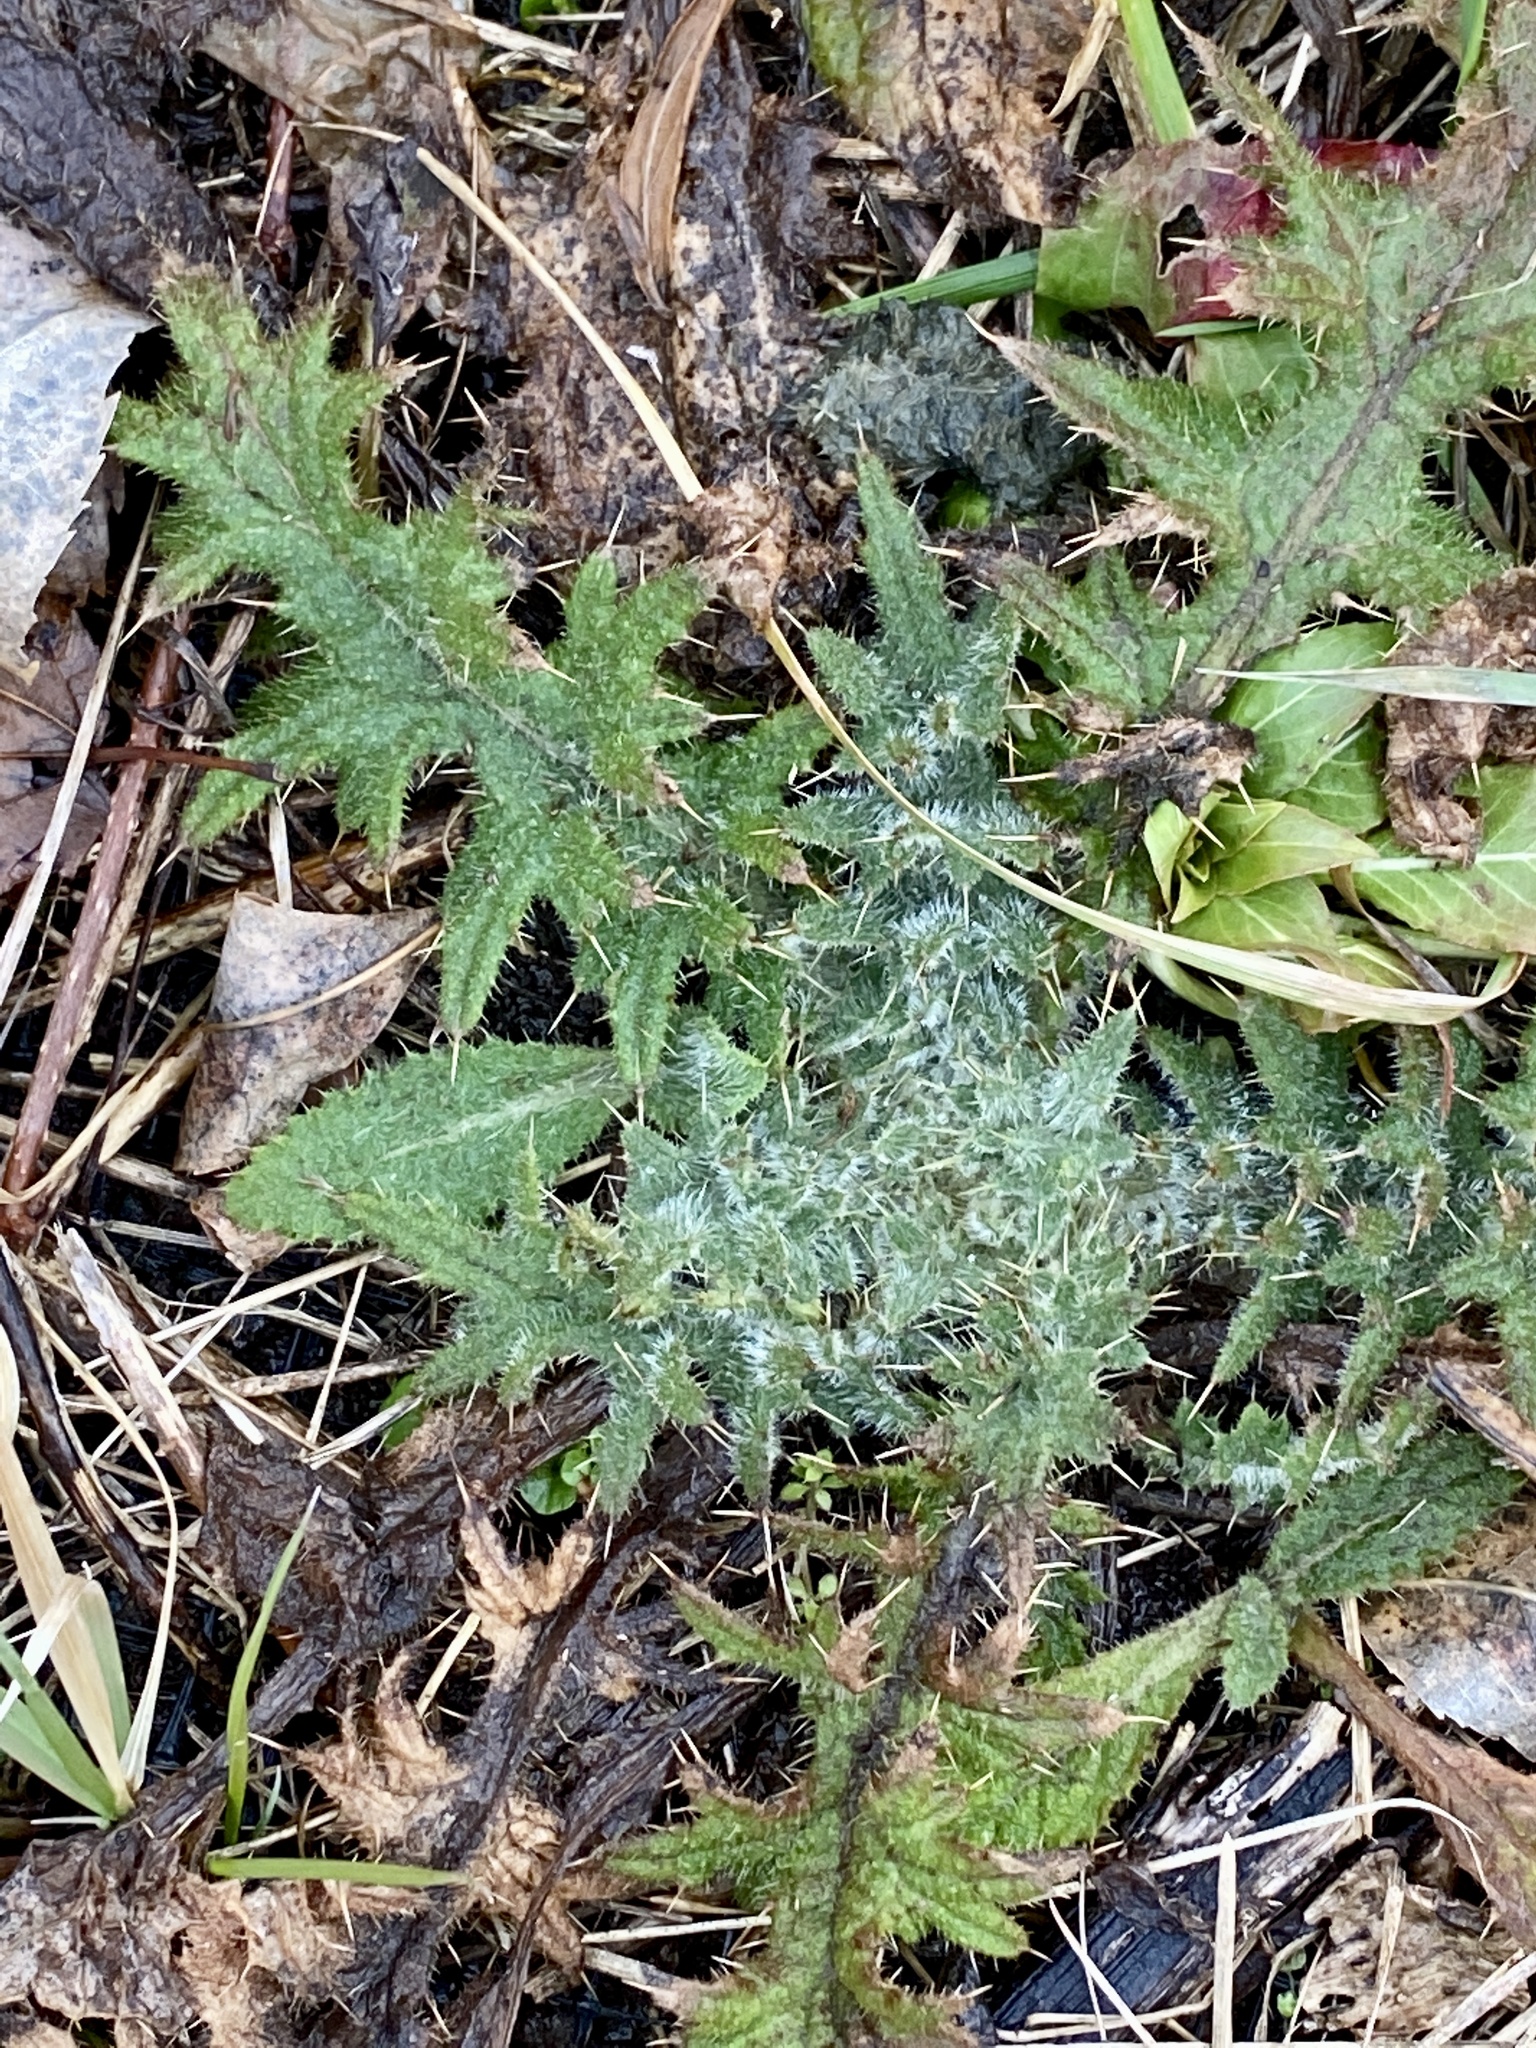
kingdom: Plantae
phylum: Tracheophyta
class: Magnoliopsida
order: Asterales
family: Asteraceae
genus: Cirsium
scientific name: Cirsium vulgare
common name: Bull thistle
